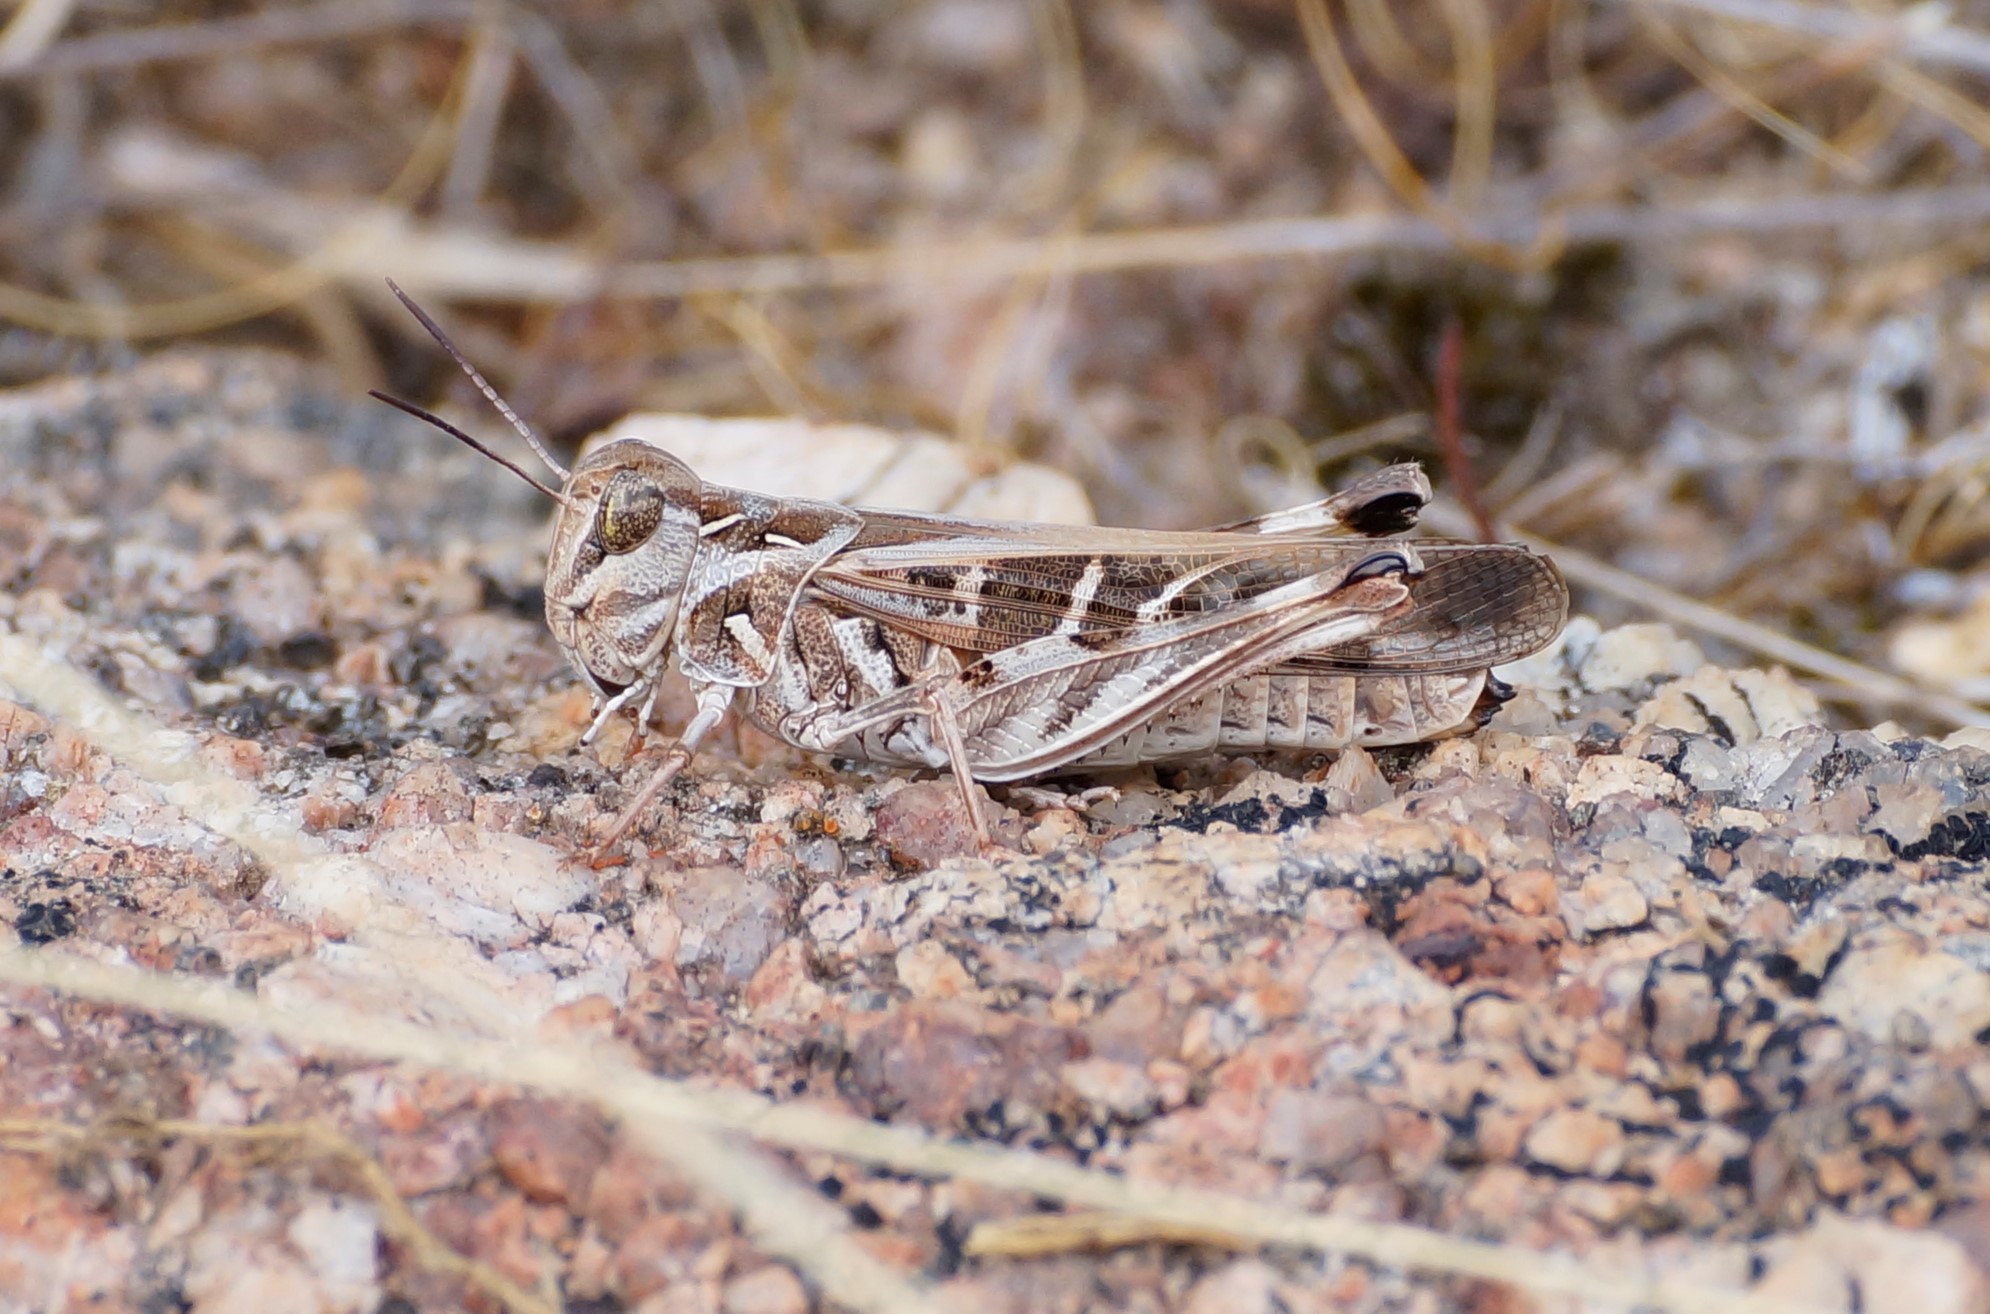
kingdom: Animalia
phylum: Arthropoda
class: Insecta
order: Orthoptera
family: Acrididae
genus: Oedaleus
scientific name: Oedaleus australis
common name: Eastern oedaleus
